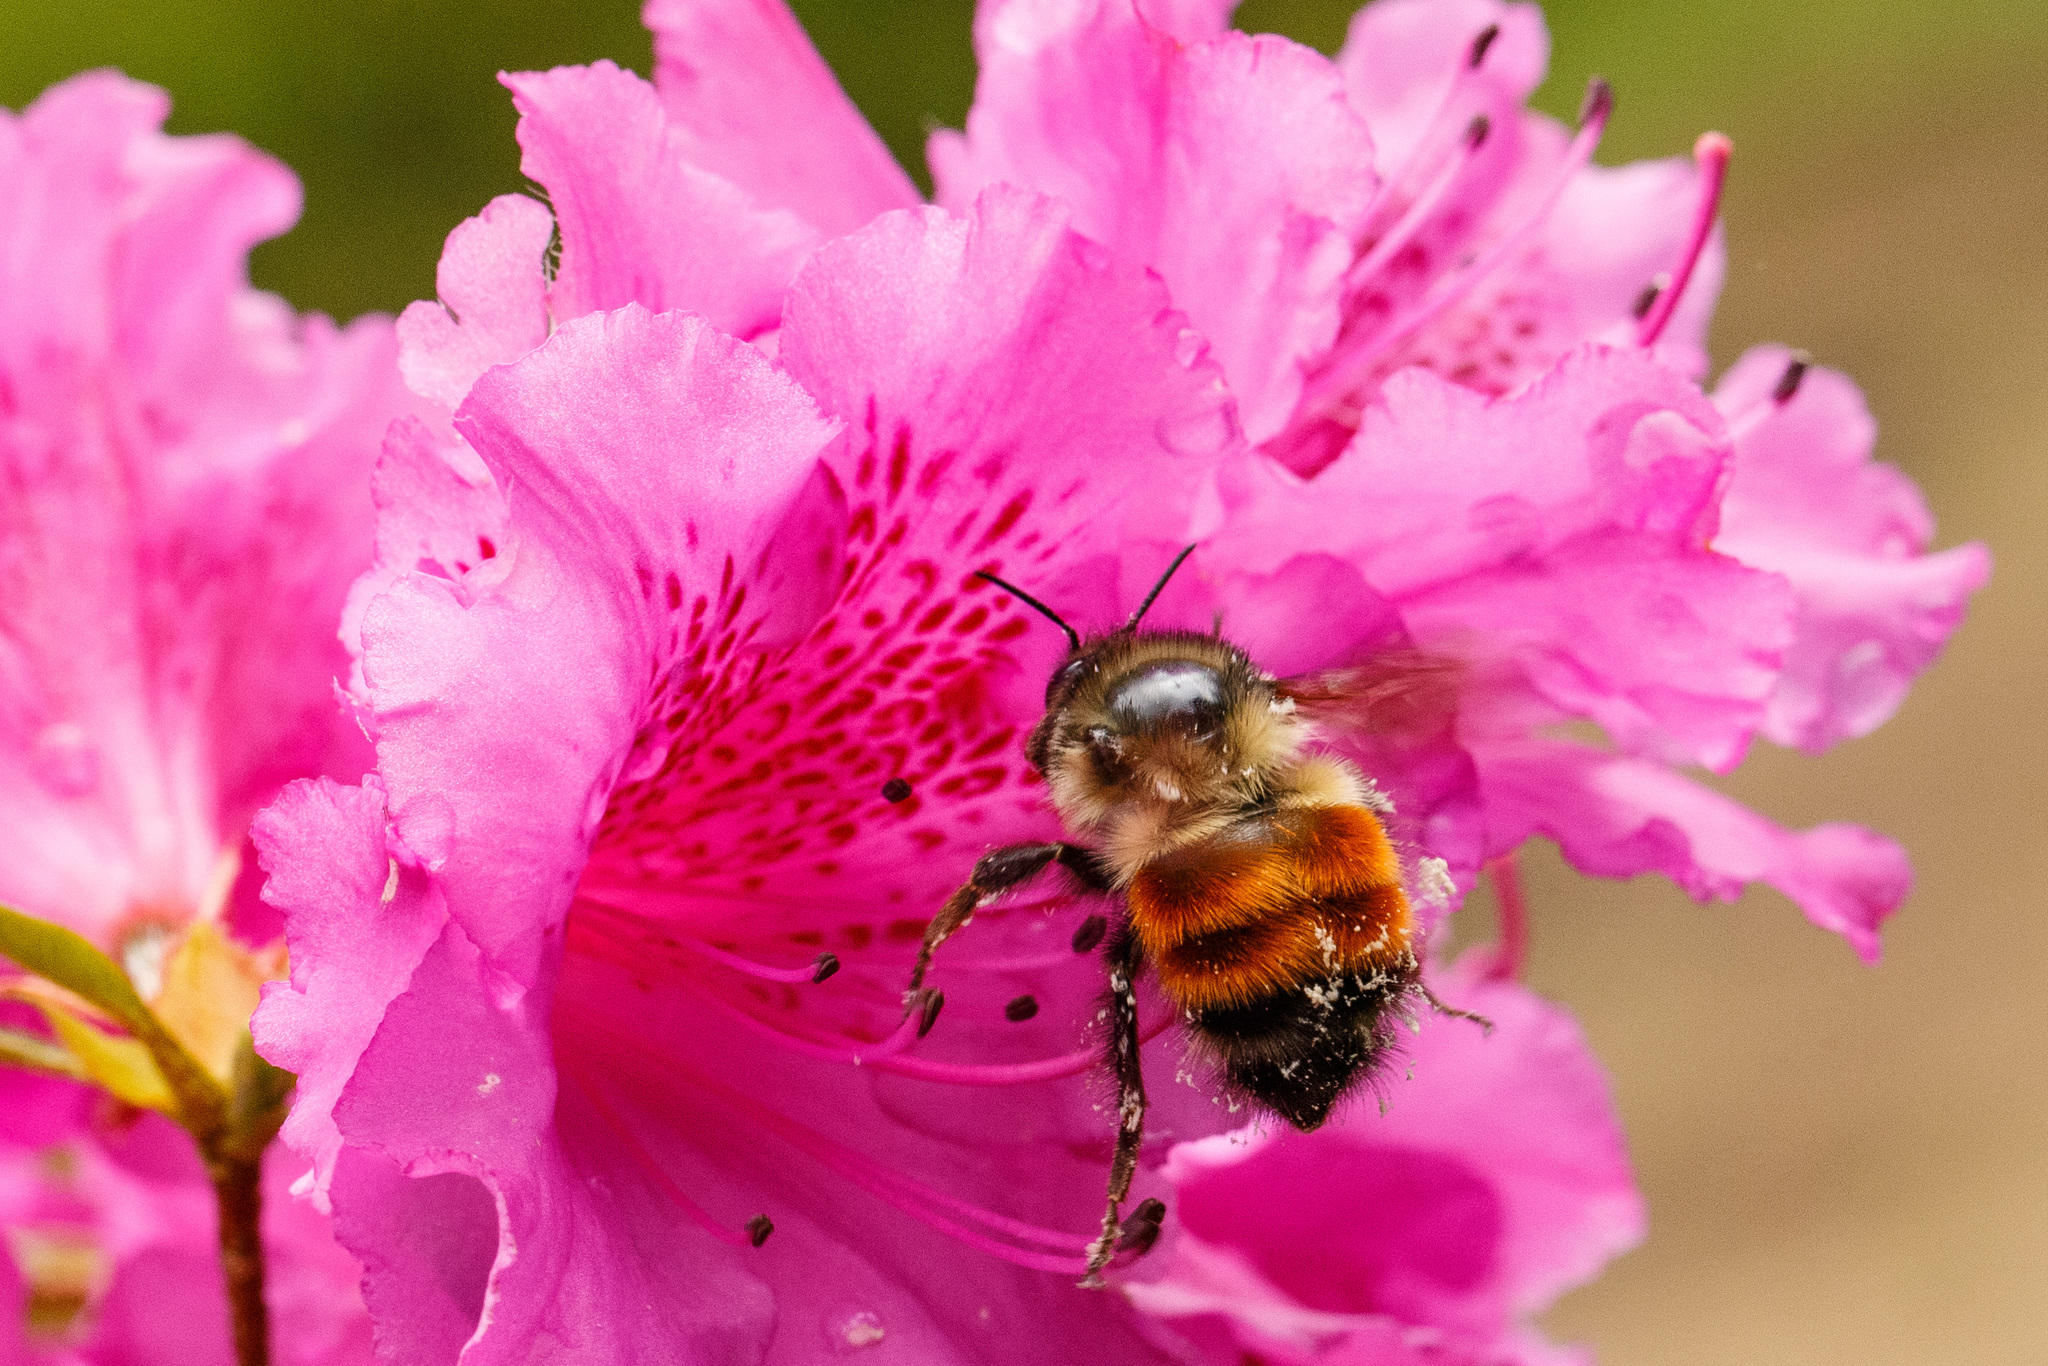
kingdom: Animalia
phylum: Arthropoda
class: Insecta
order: Hymenoptera
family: Apidae
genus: Bombus
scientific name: Bombus melanopygus
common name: Black tail bumble bee
